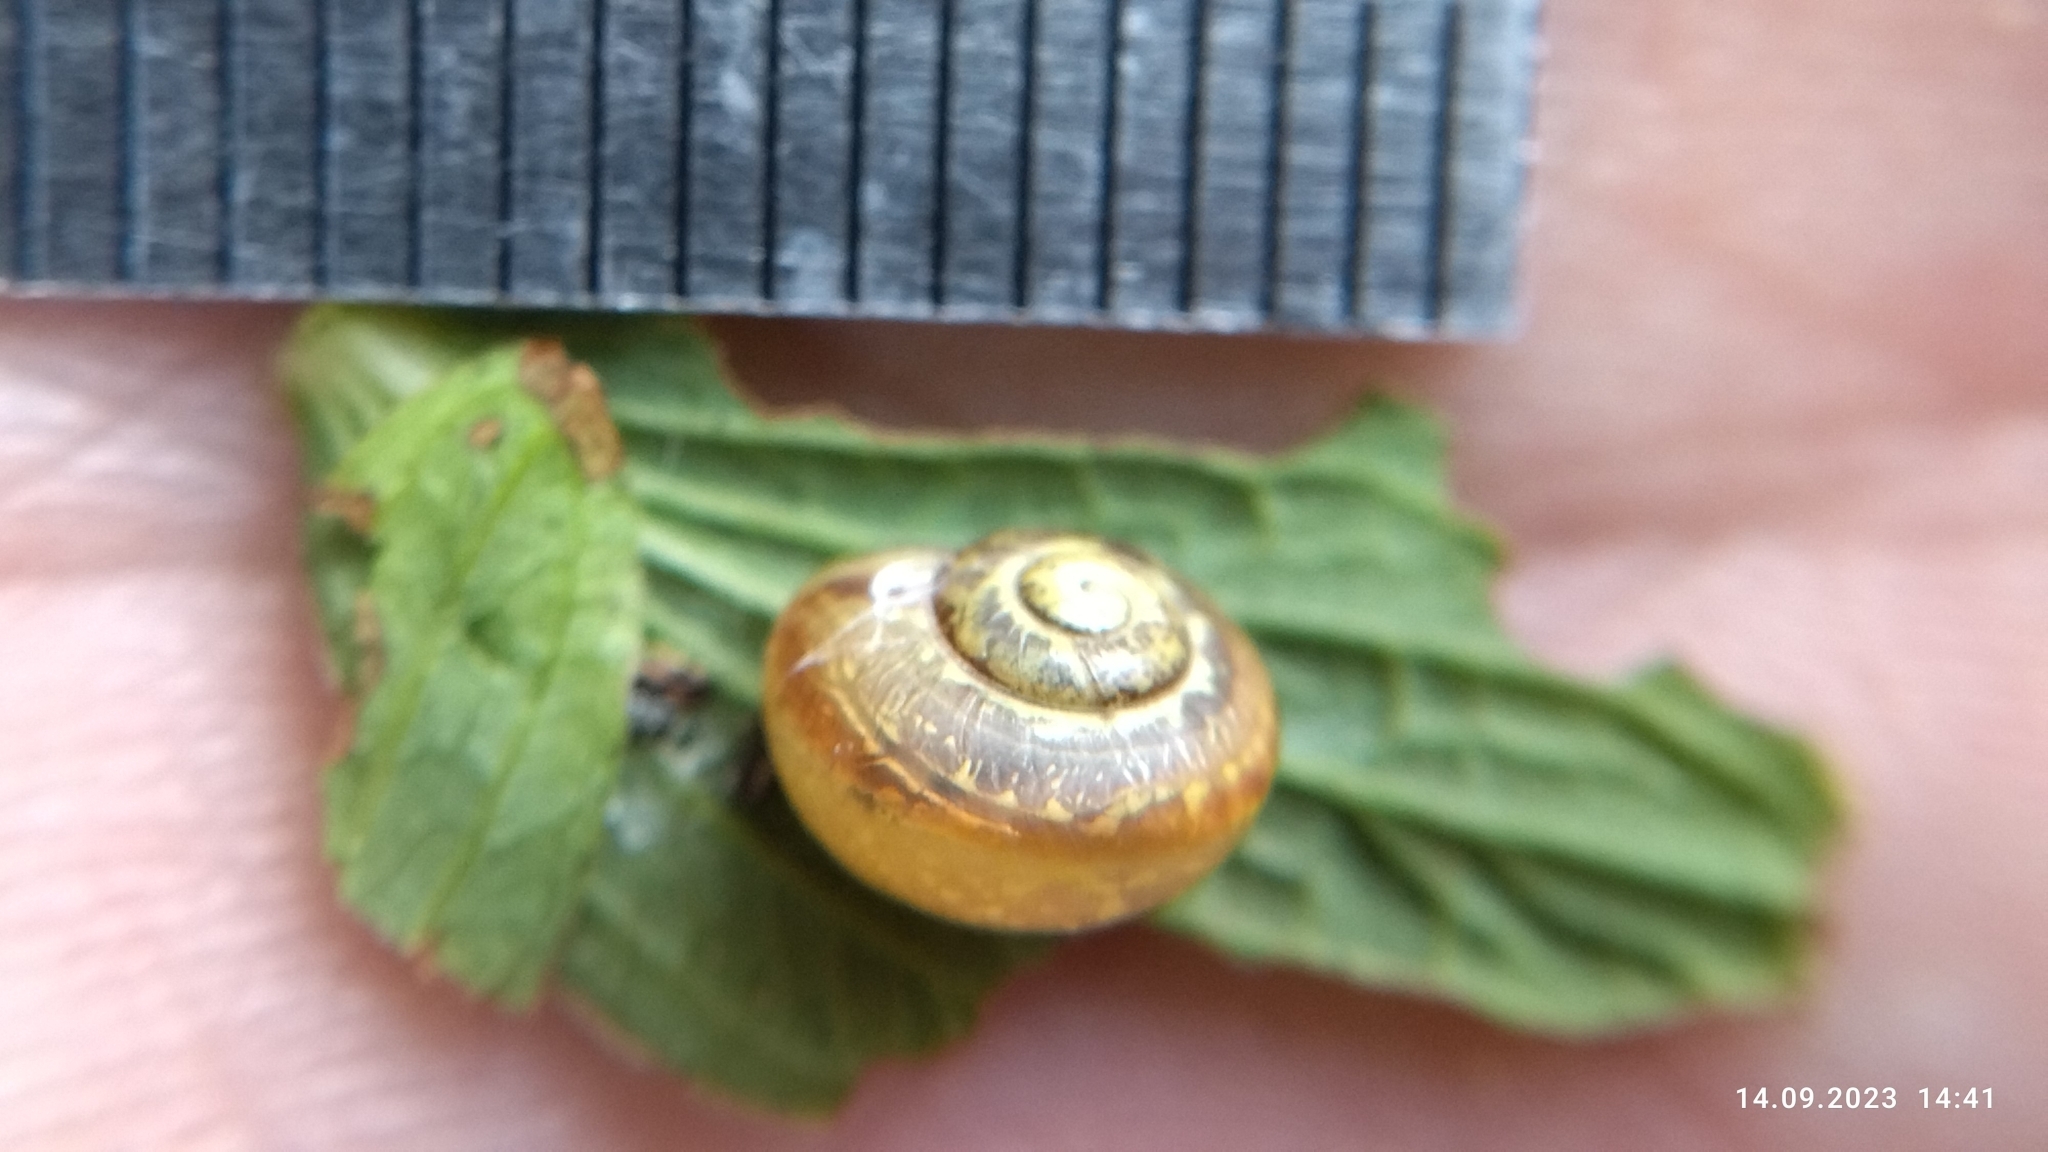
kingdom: Animalia
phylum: Mollusca
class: Gastropoda
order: Stylommatophora
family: Camaenidae
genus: Fruticicola
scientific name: Fruticicola fruticum
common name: Bush snail
